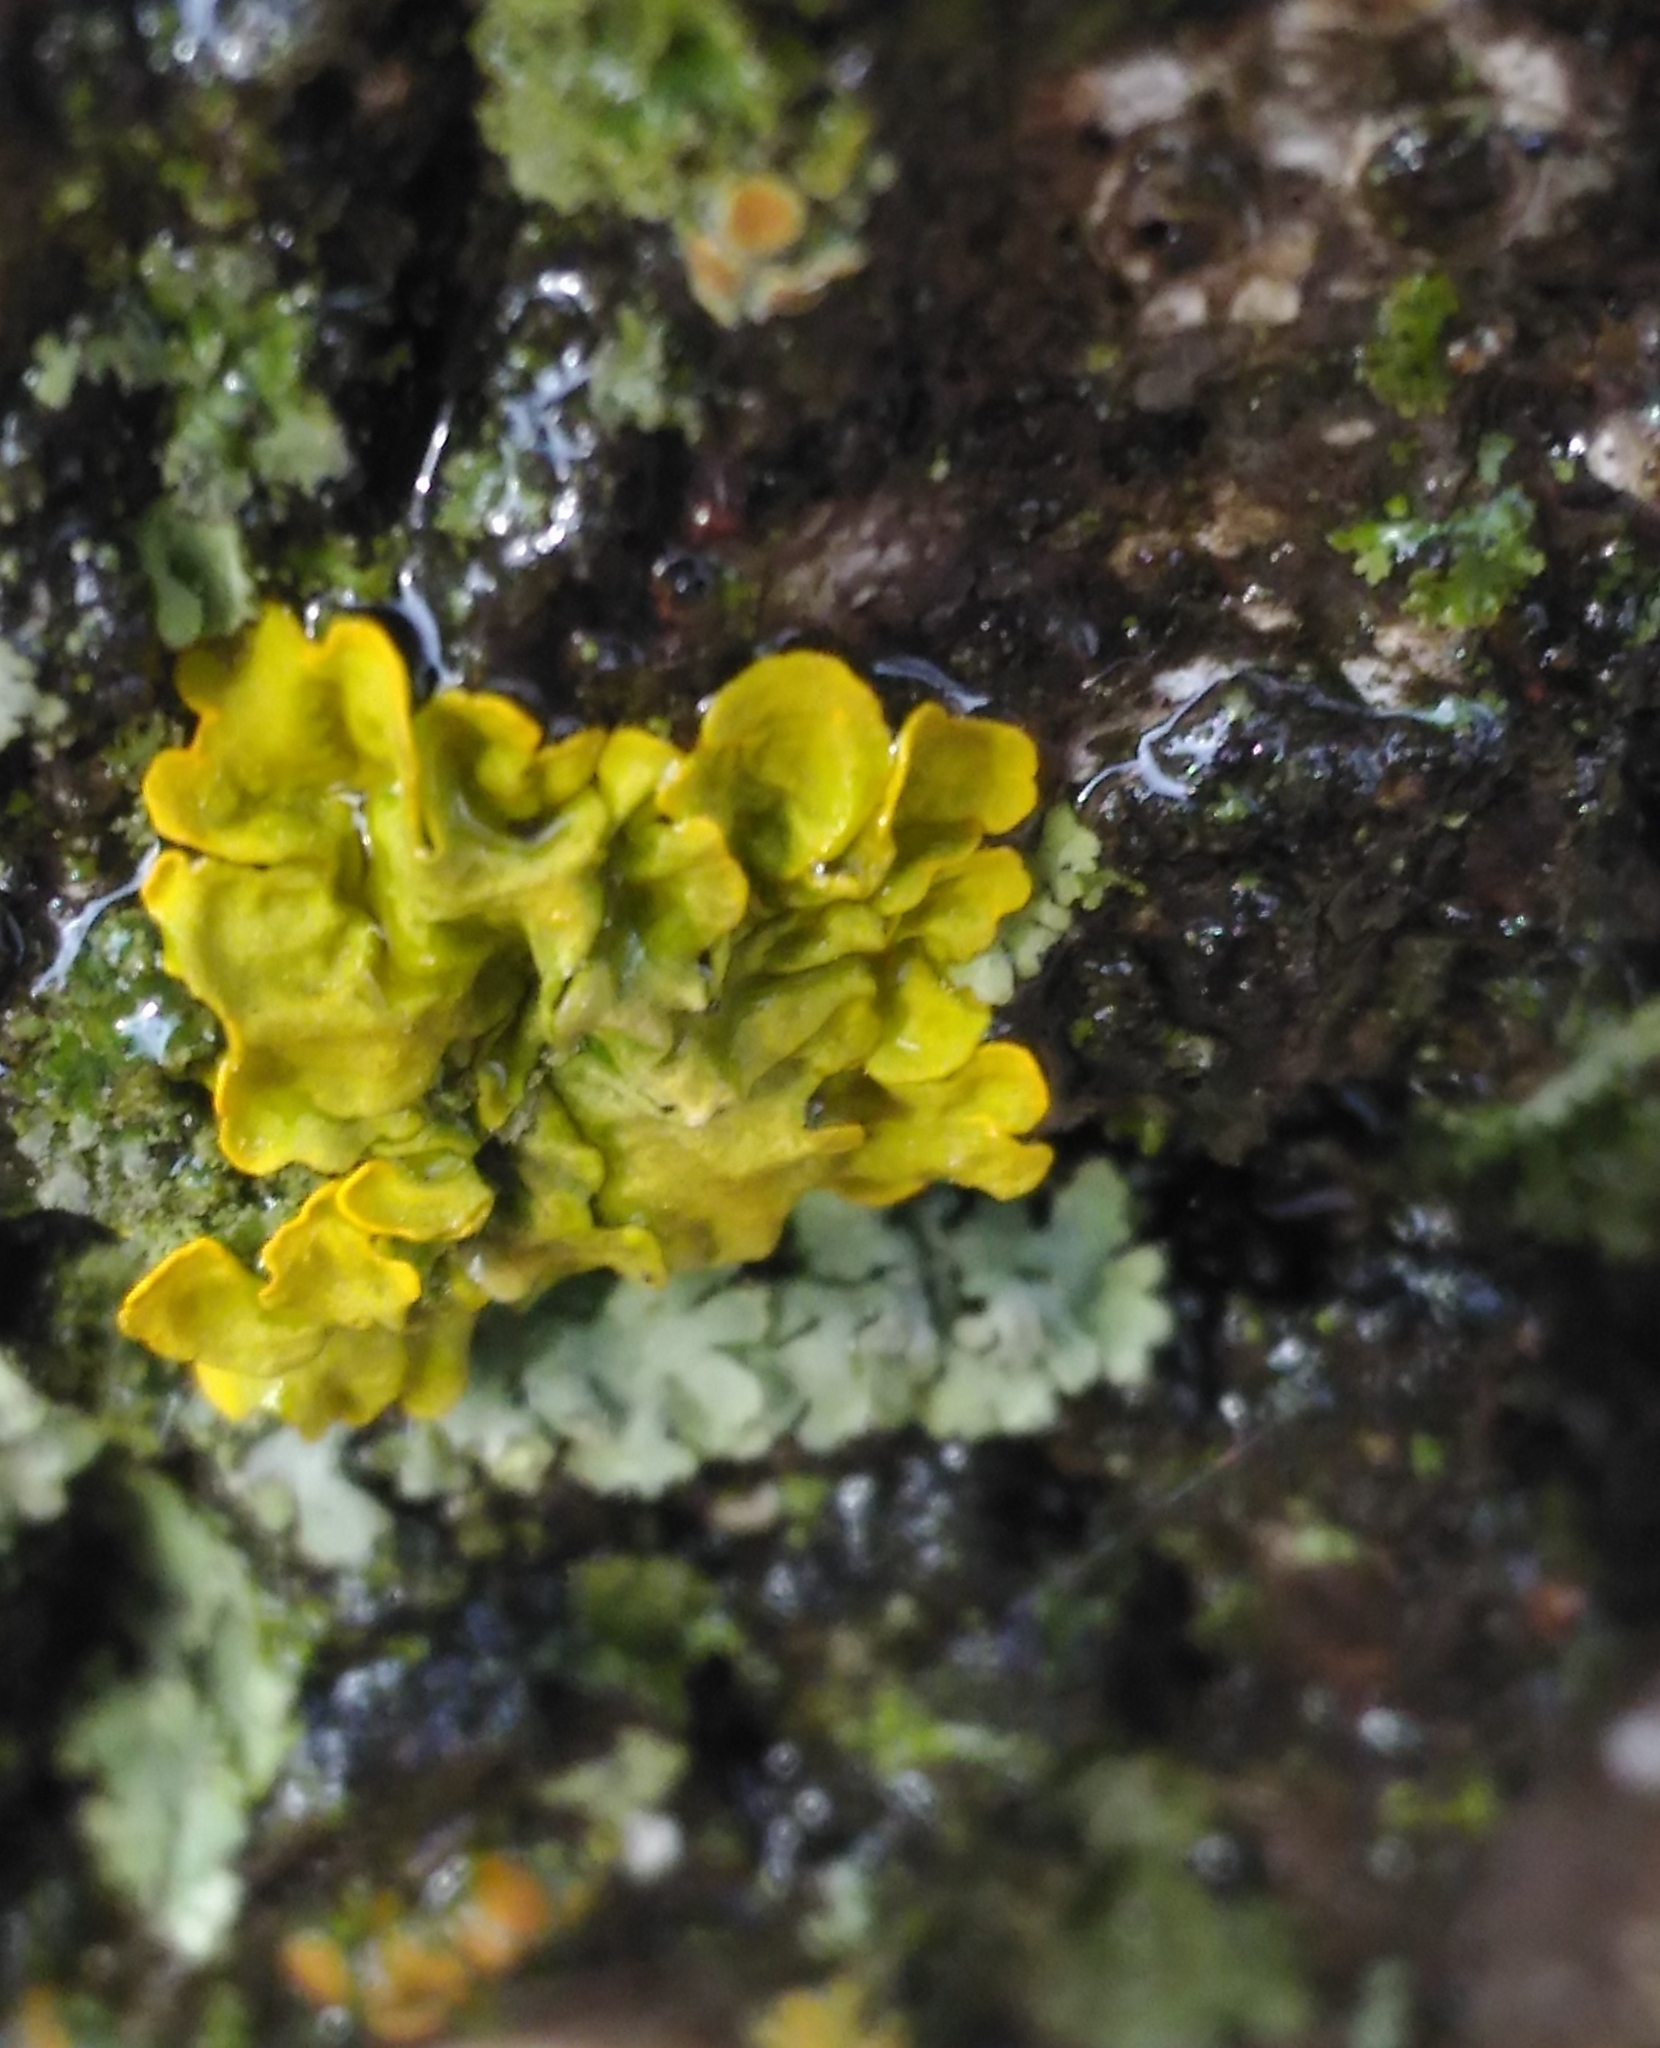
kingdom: Fungi
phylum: Ascomycota
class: Lecanoromycetes
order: Teloschistales
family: Teloschistaceae
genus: Xanthoria
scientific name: Xanthoria parietina
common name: Common orange lichen
